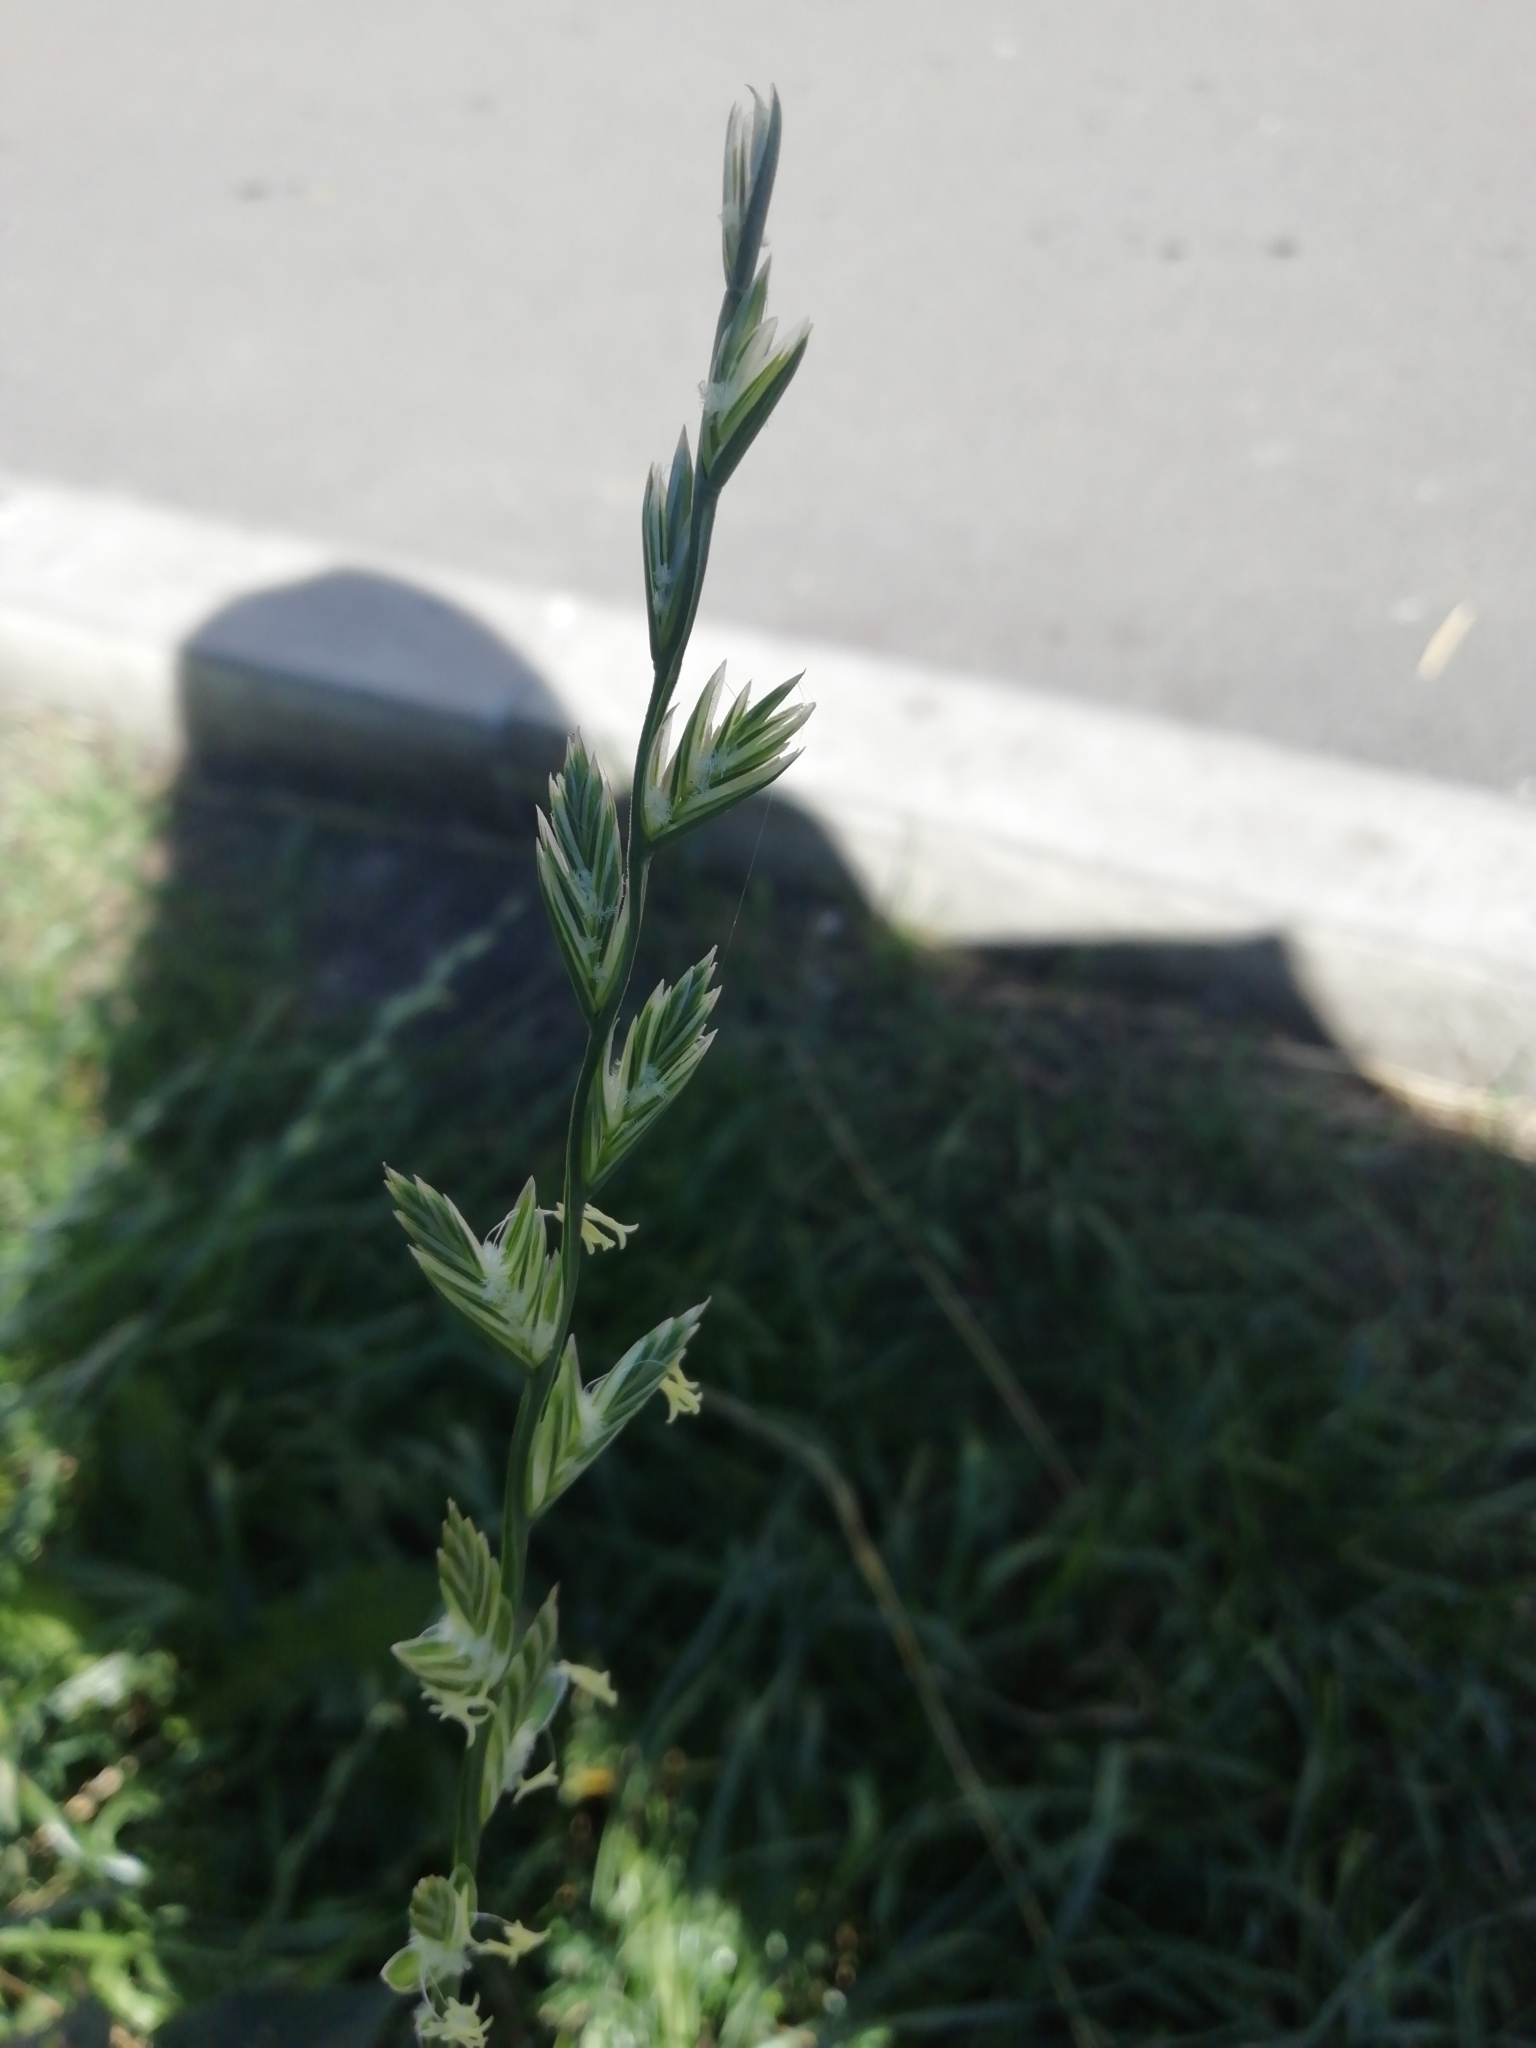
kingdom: Plantae
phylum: Tracheophyta
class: Liliopsida
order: Poales
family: Poaceae
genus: Lolium
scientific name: Lolium perenne
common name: Perennial ryegrass
